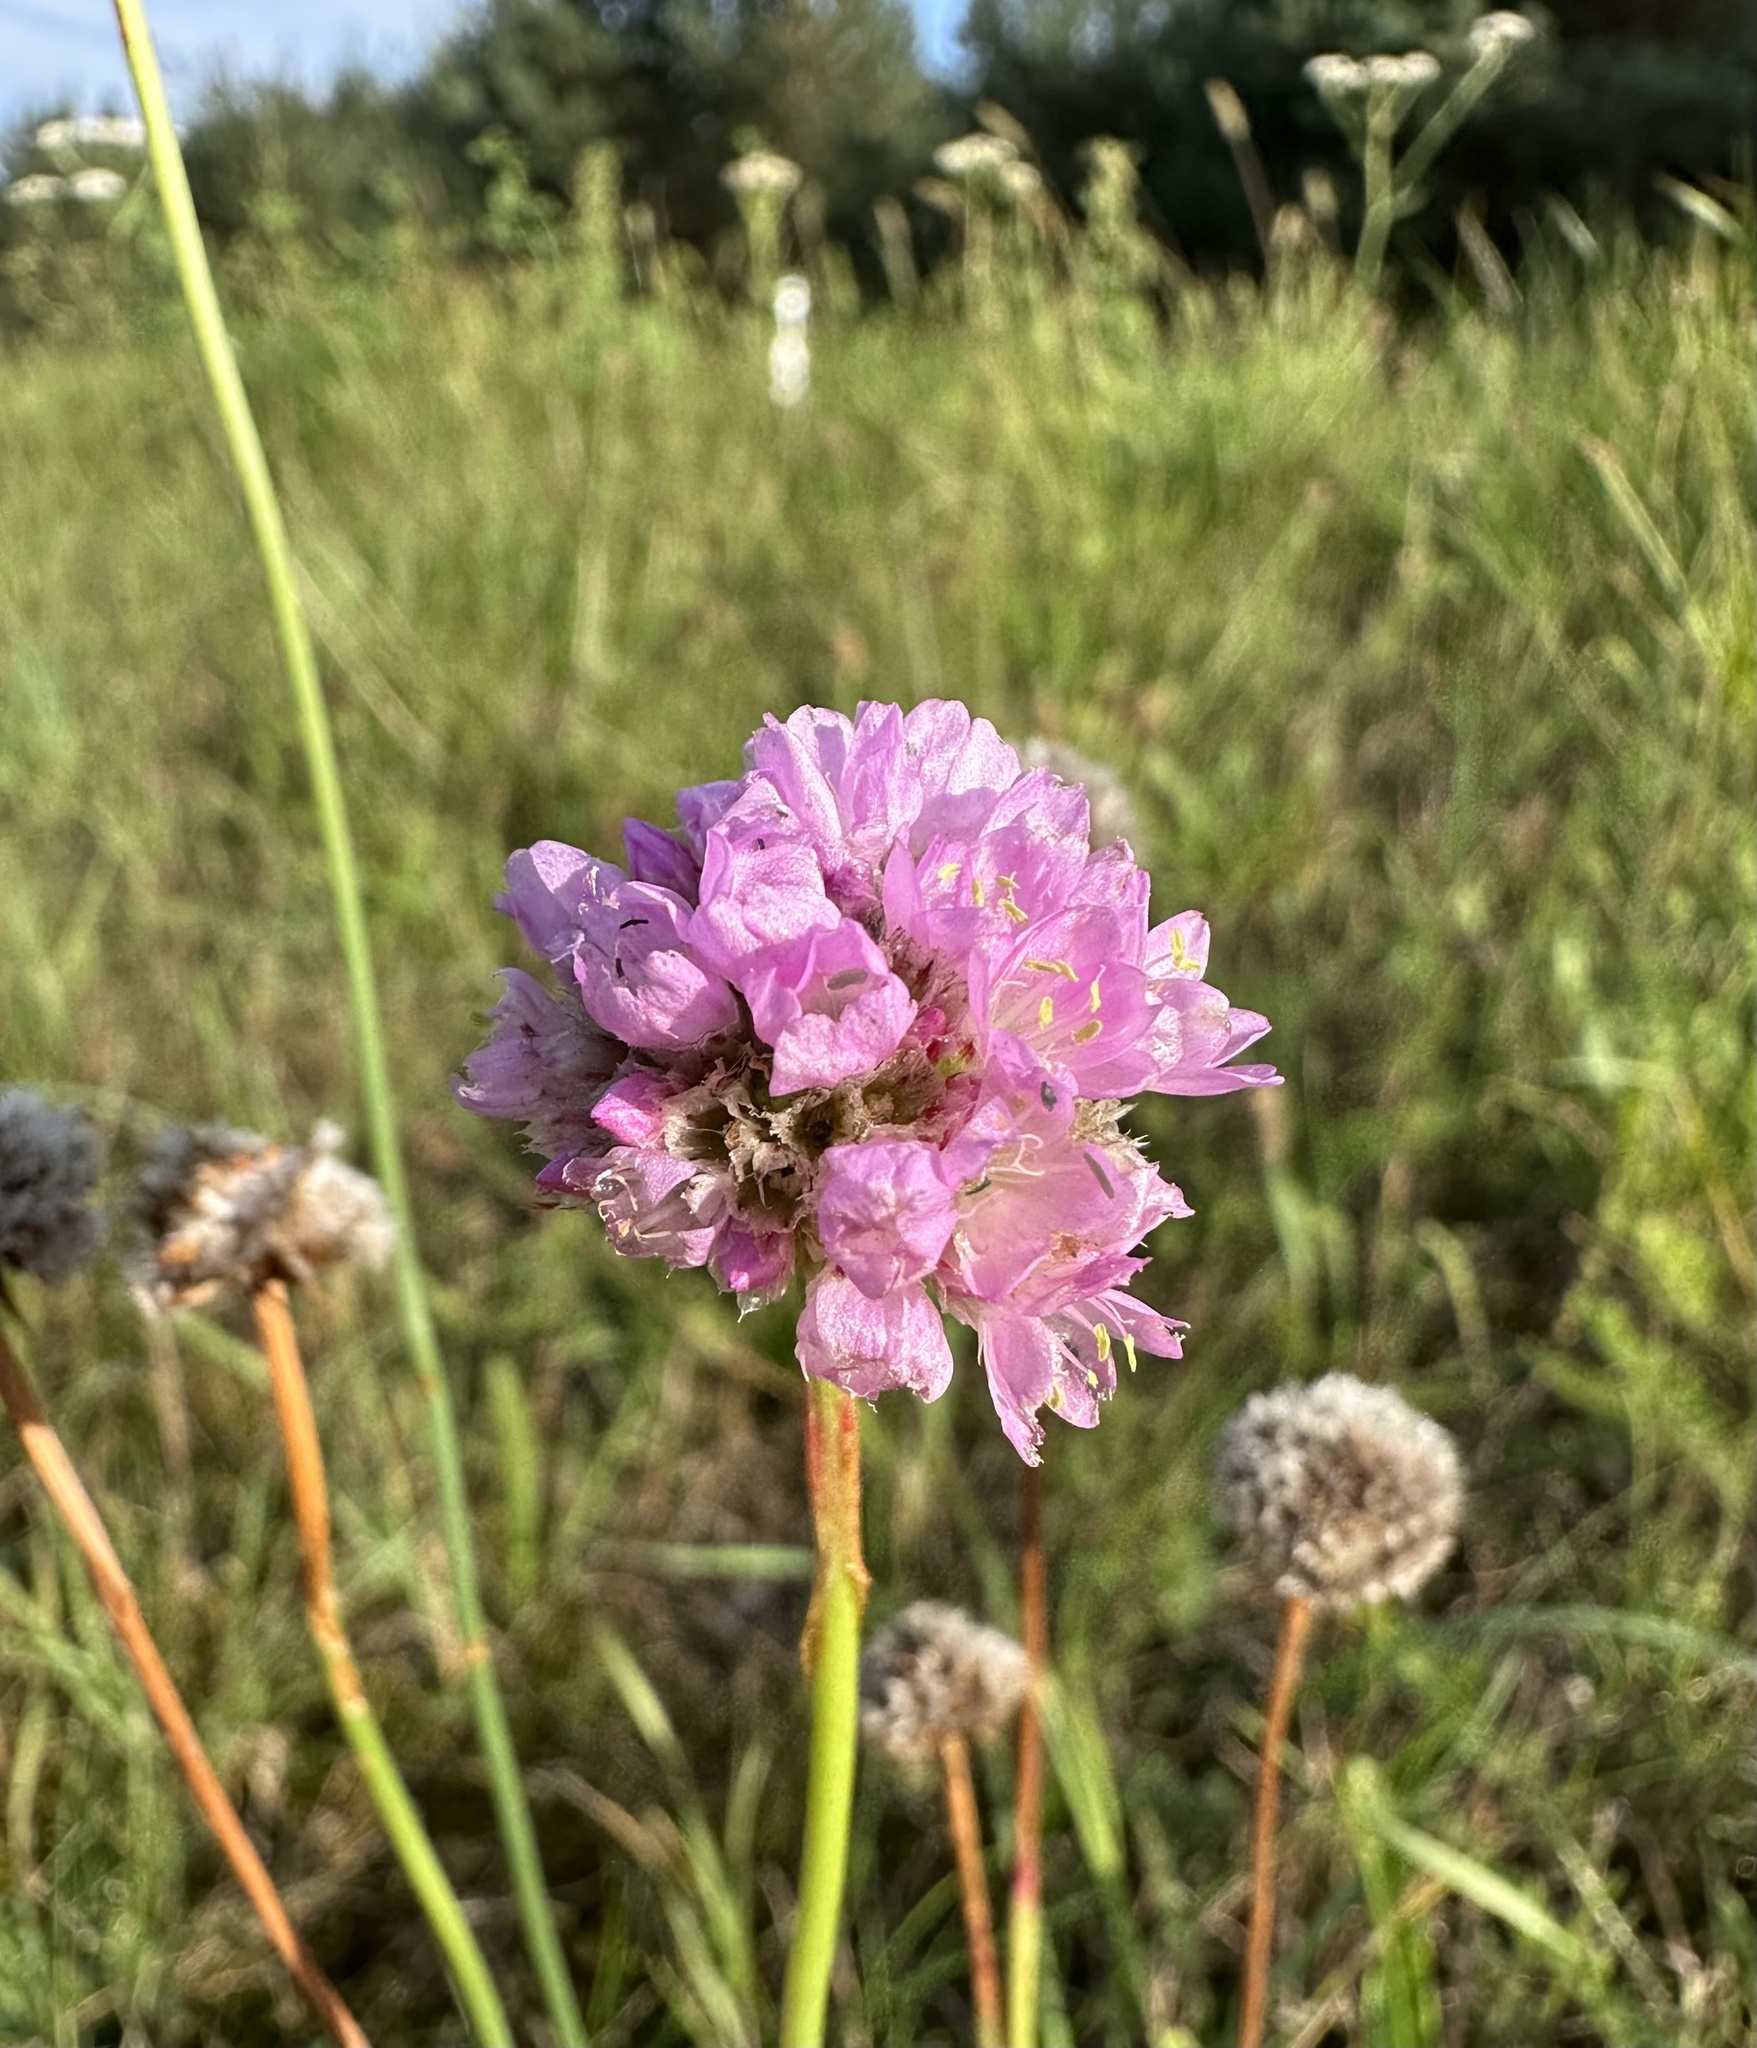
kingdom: Plantae
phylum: Tracheophyta
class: Magnoliopsida
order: Caryophyllales
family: Plumbaginaceae
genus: Armeria
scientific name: Armeria maritima
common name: Thrift
